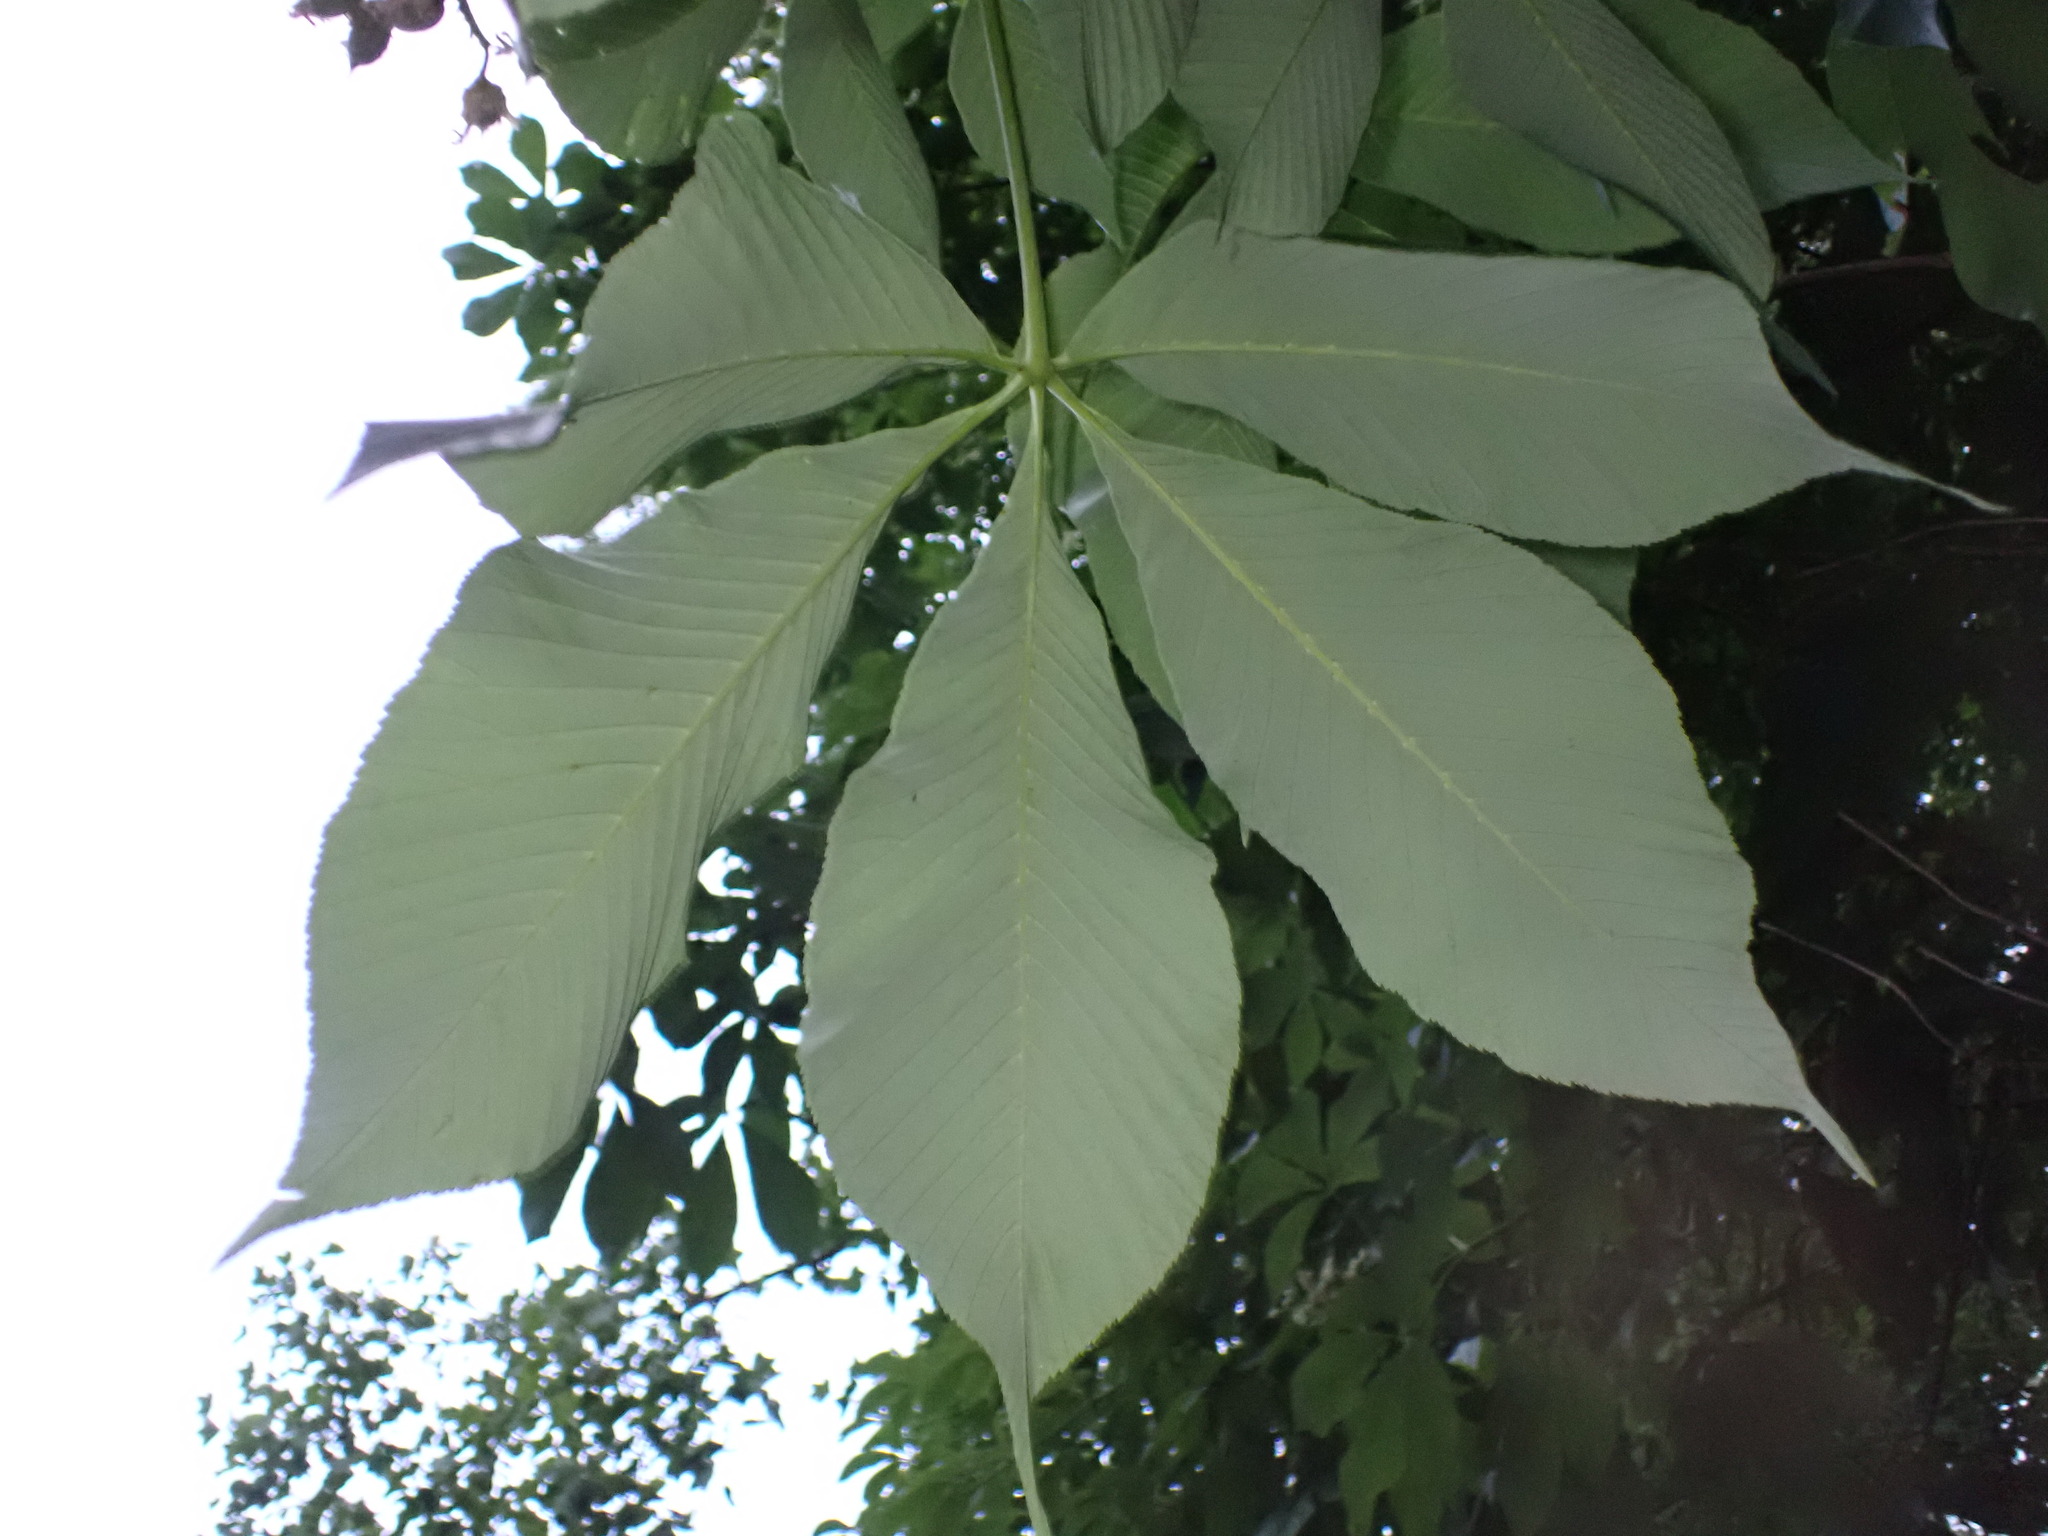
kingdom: Plantae
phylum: Tracheophyta
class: Magnoliopsida
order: Sapindales
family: Sapindaceae
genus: Aesculus
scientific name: Aesculus glabra
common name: Ohio buckeye
